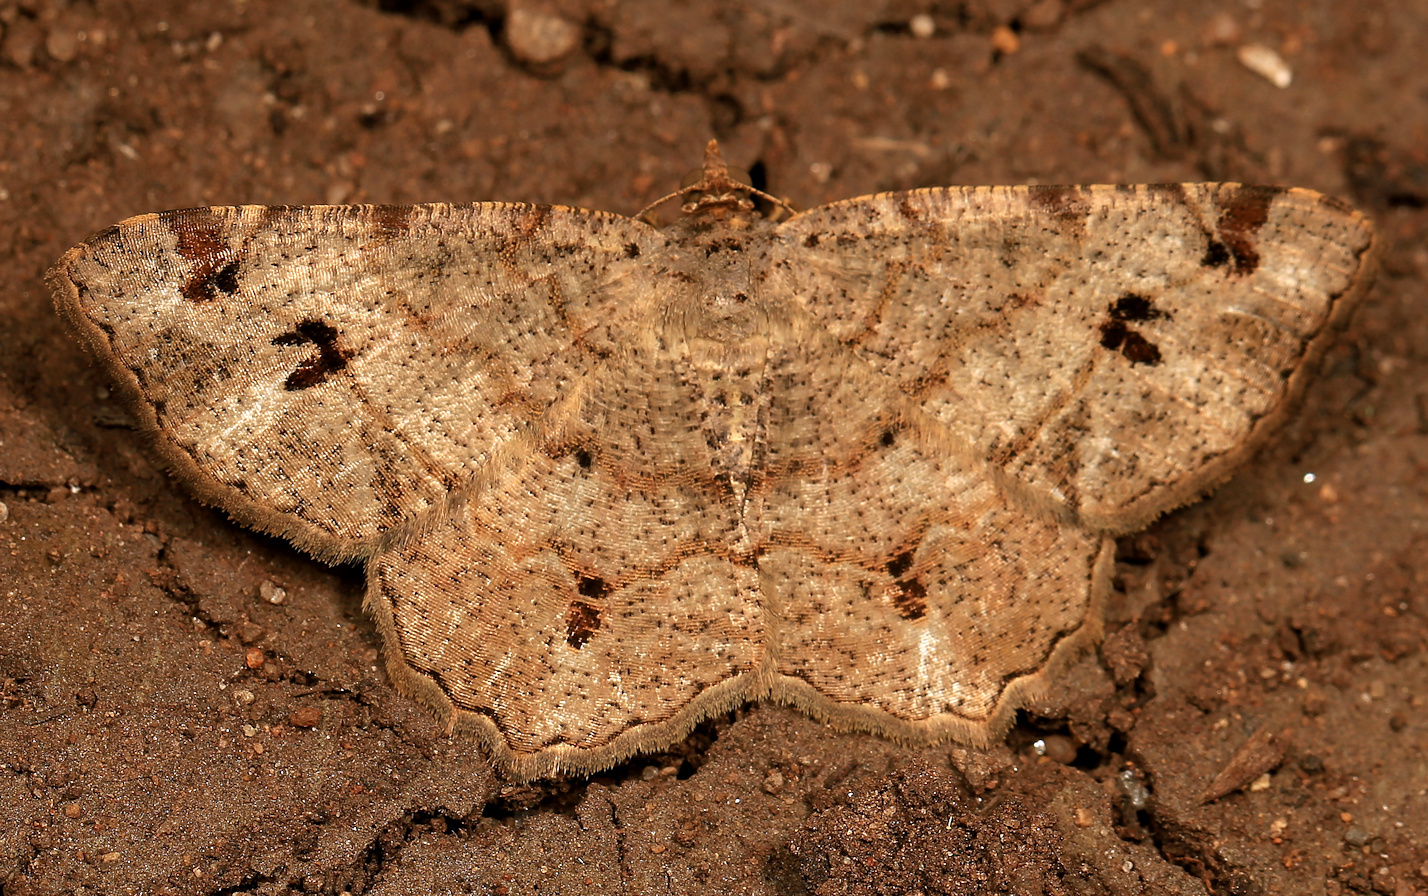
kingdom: Animalia
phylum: Arthropoda
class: Insecta
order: Lepidoptera
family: Geometridae
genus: Chiasmia
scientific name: Chiasmia deceptrix
